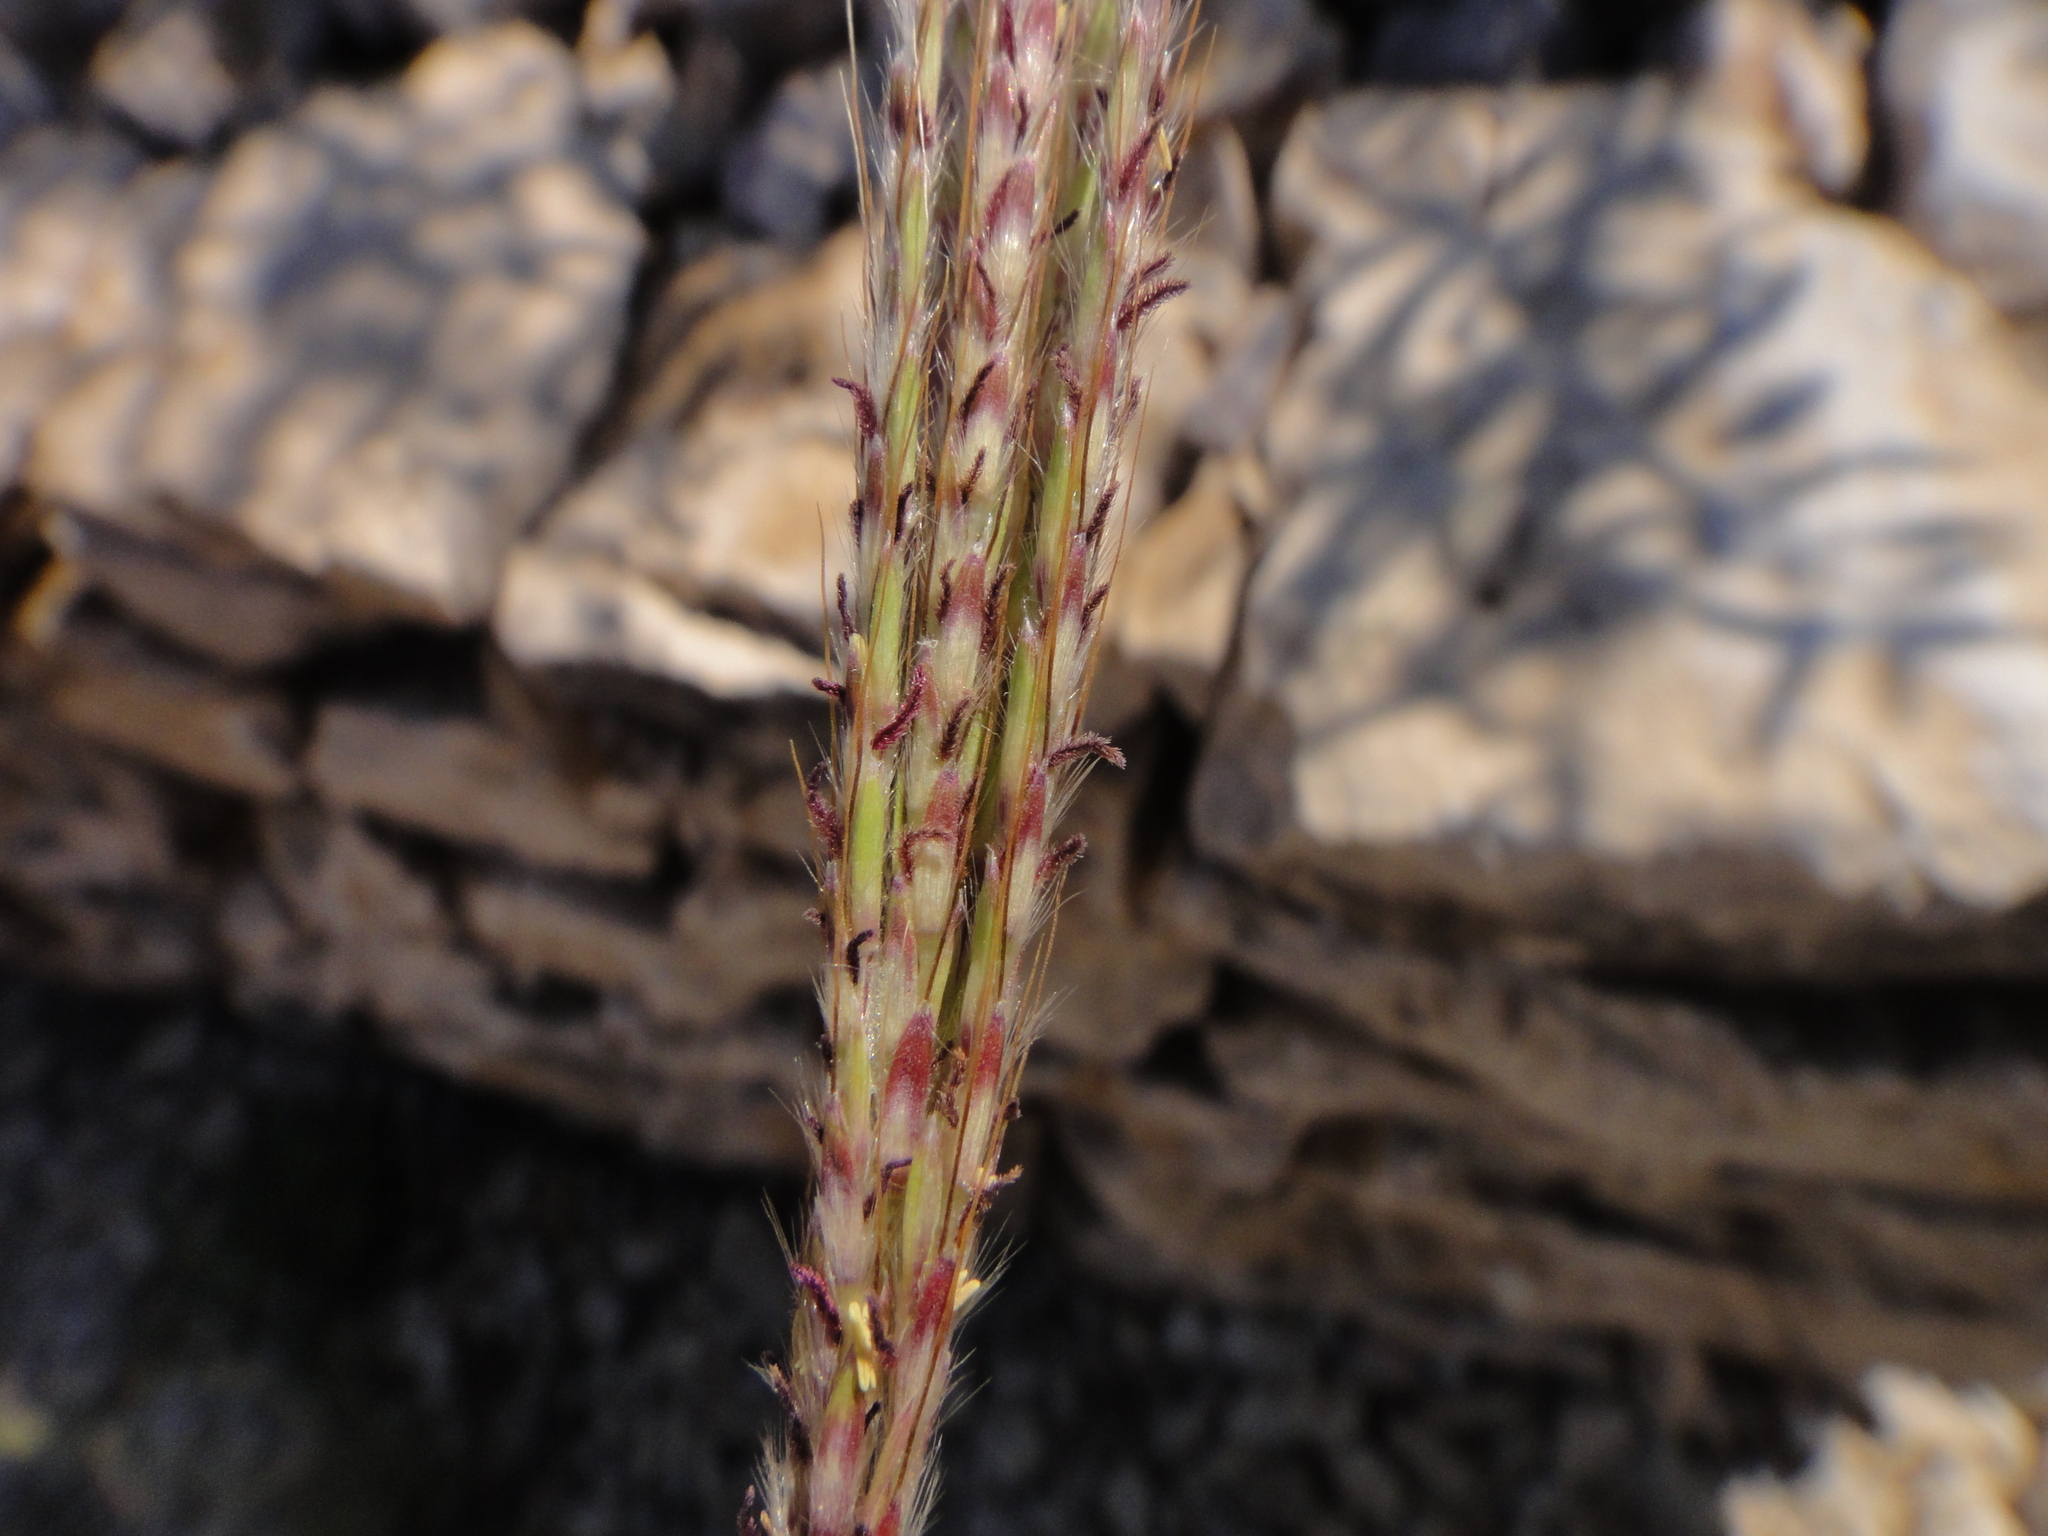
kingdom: Plantae
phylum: Tracheophyta
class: Liliopsida
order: Poales
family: Poaceae
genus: Bothriochloa
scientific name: Bothriochloa ischaemum
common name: Yellow bluestem
